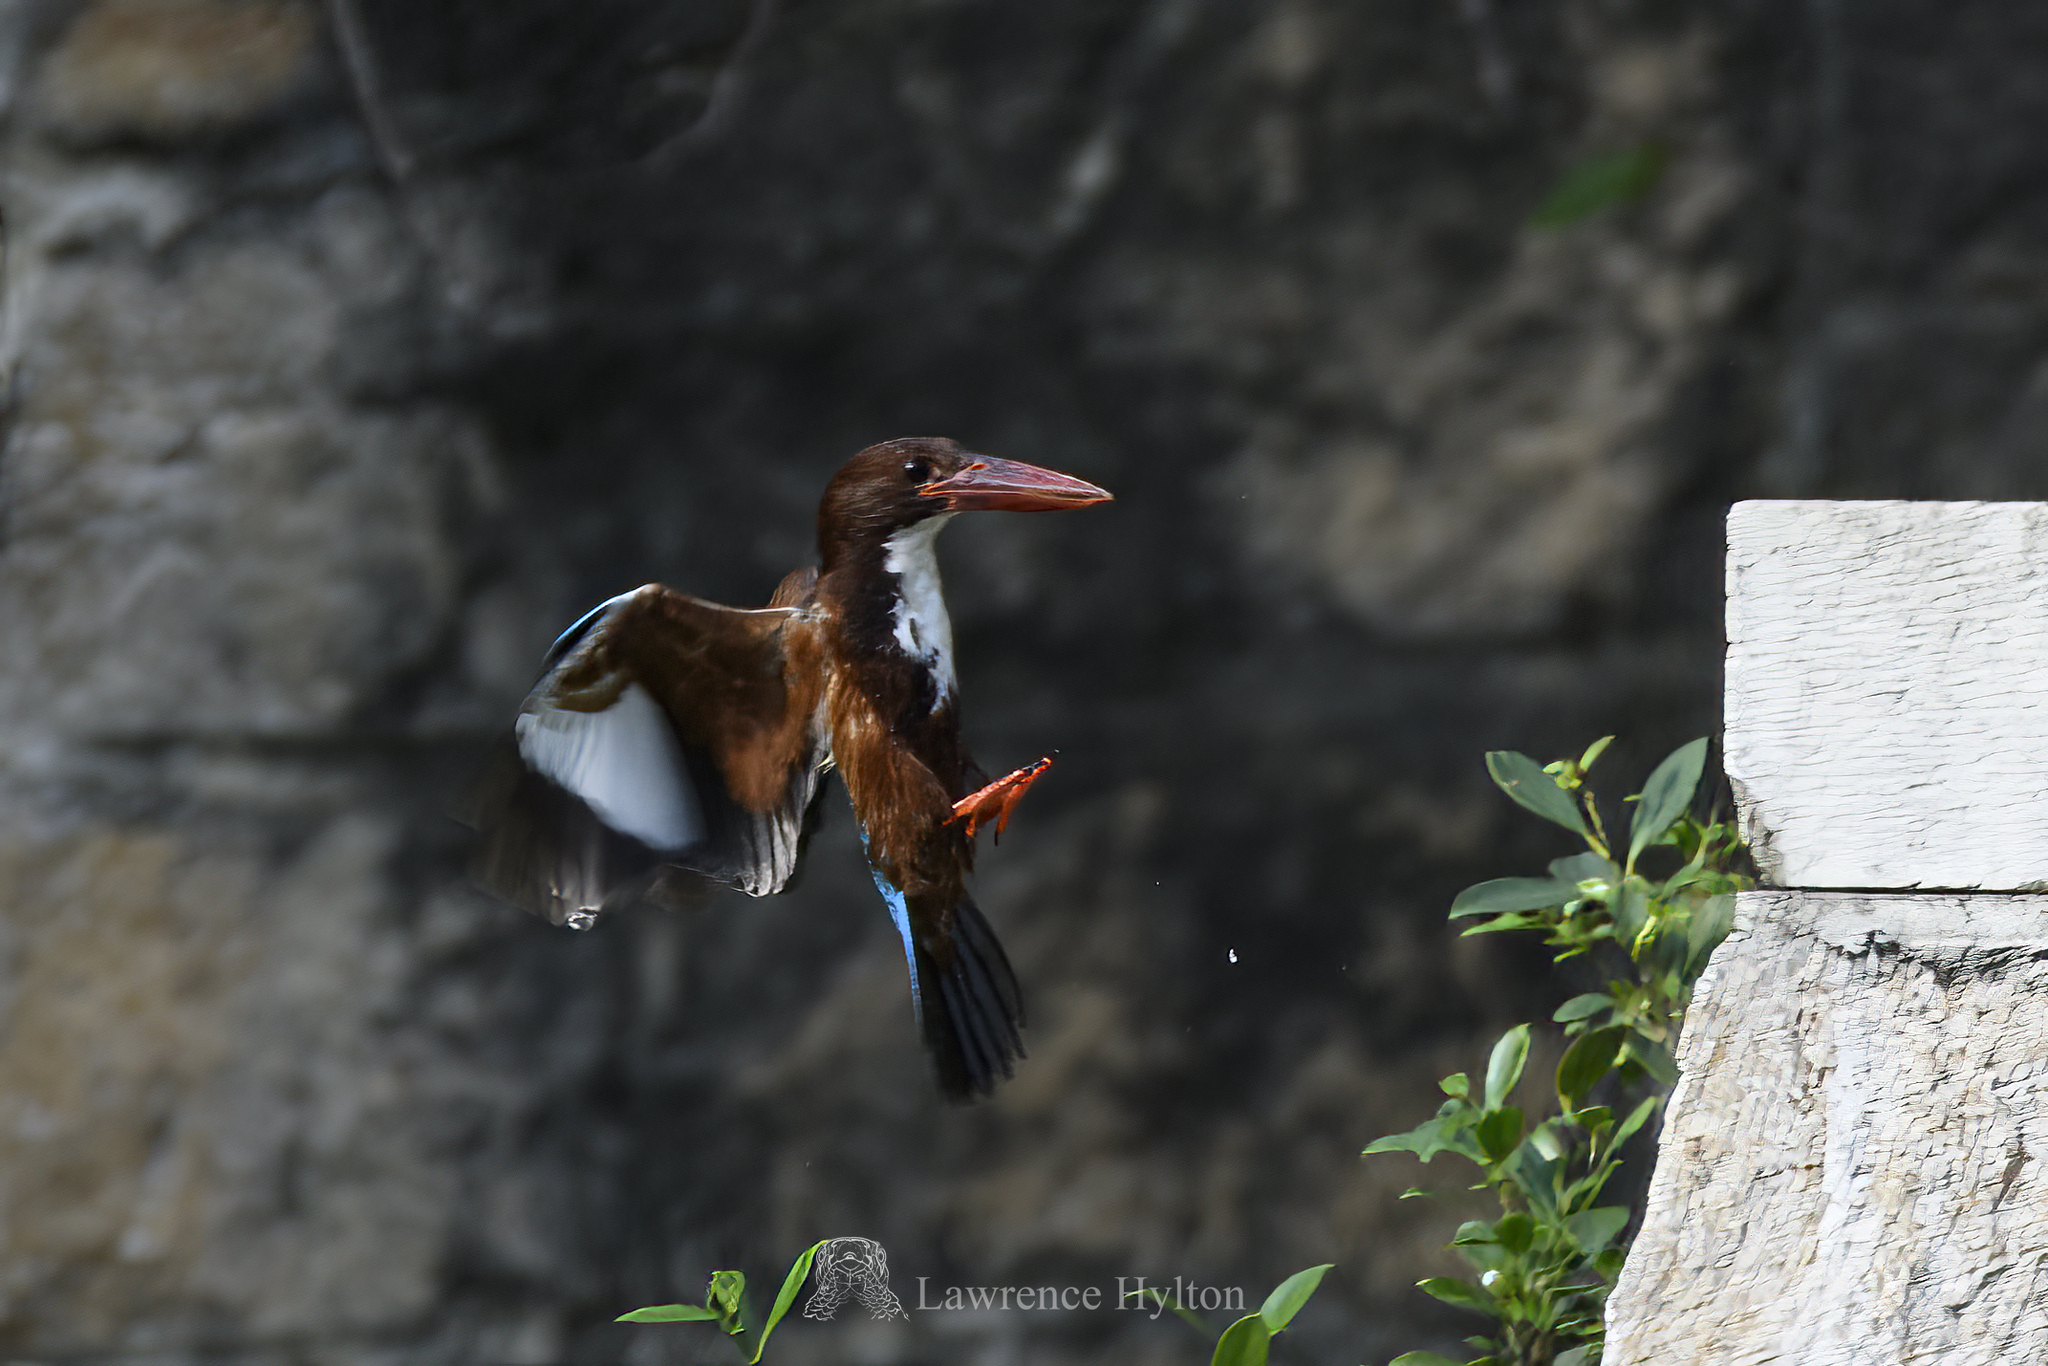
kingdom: Animalia
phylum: Chordata
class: Aves
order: Coraciiformes
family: Alcedinidae
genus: Halcyon
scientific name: Halcyon smyrnensis
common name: White-throated kingfisher
